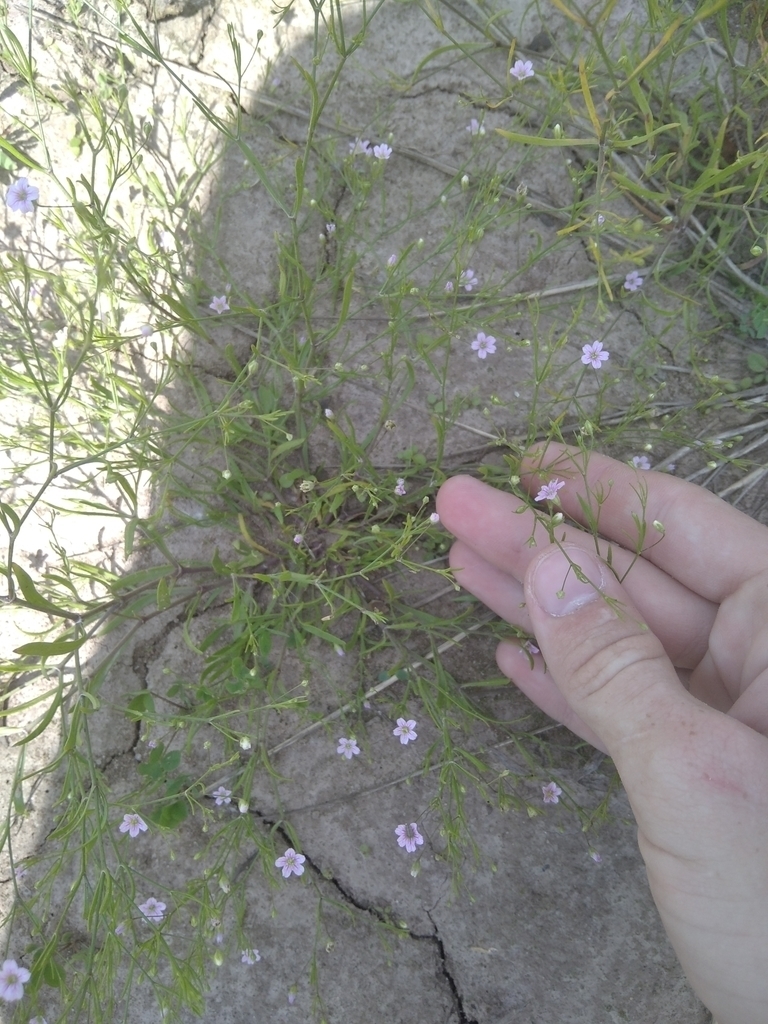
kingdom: Plantae
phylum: Tracheophyta
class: Magnoliopsida
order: Caryophyllales
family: Caryophyllaceae
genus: Psammophiliella
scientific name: Psammophiliella muralis
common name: Cushion baby's-breath
